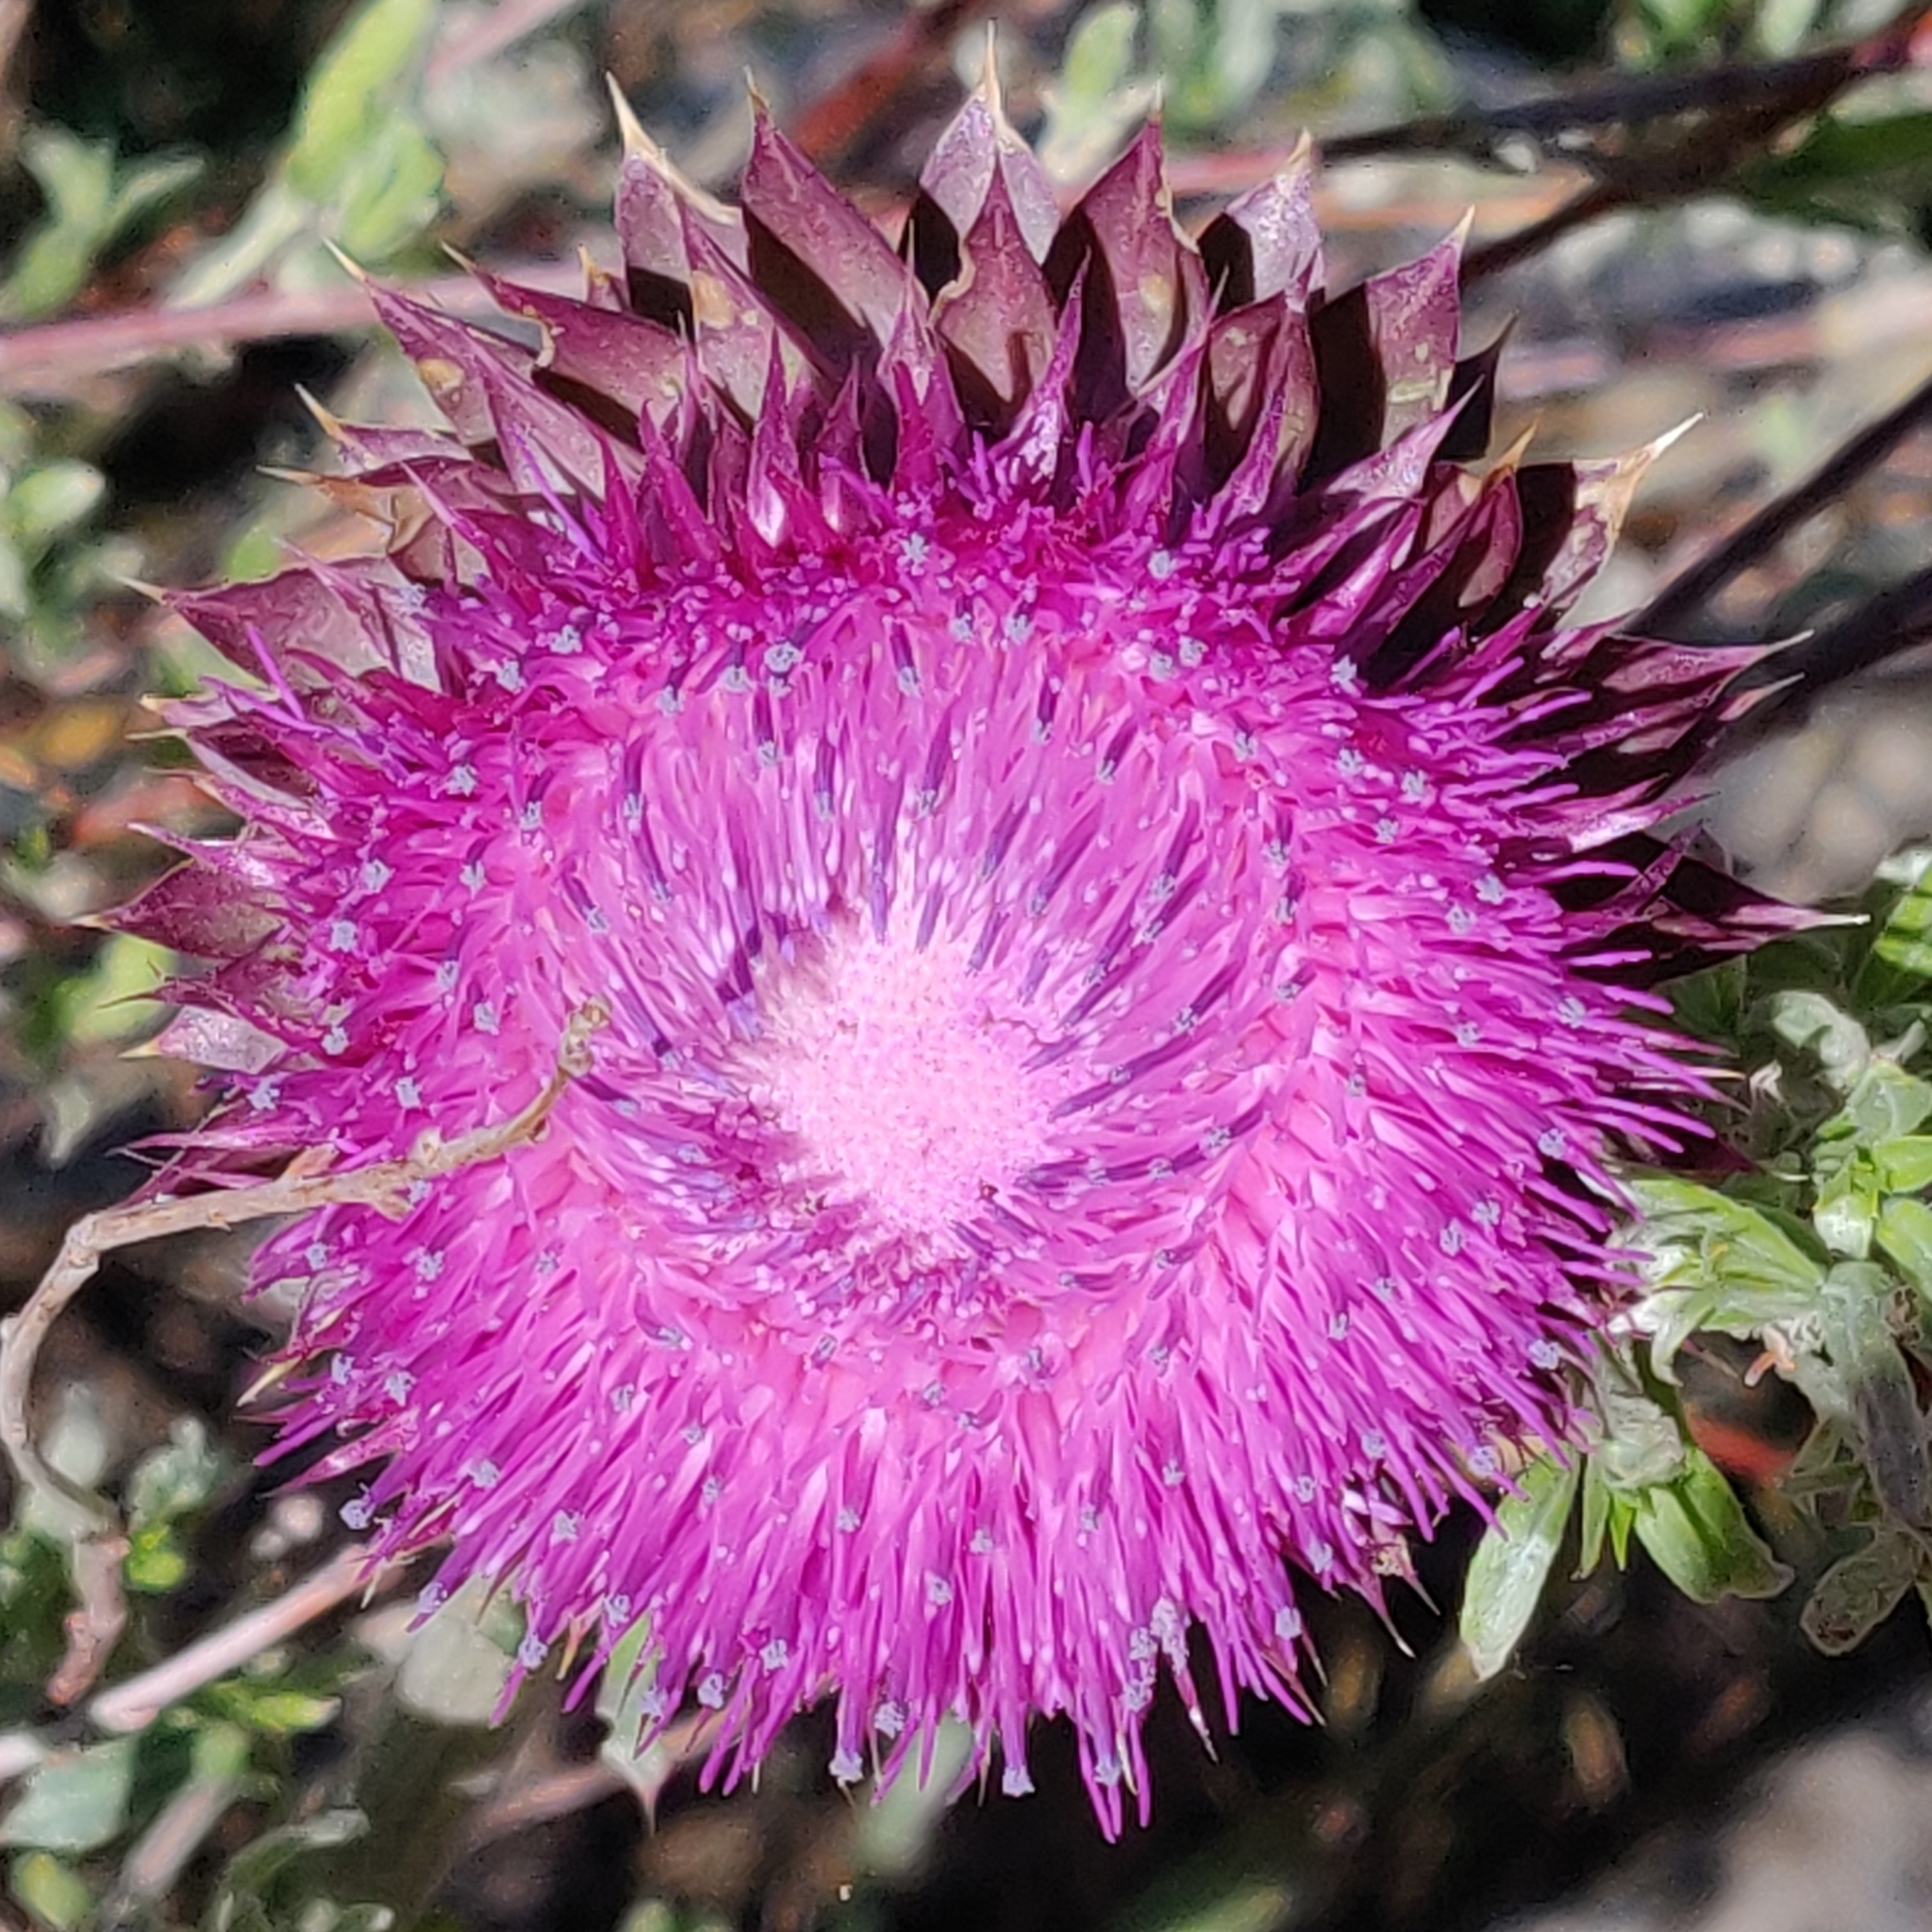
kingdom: Plantae
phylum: Tracheophyta
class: Magnoliopsida
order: Asterales
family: Asteraceae
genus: Carduus
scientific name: Carduus nutans
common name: Musk thistle
